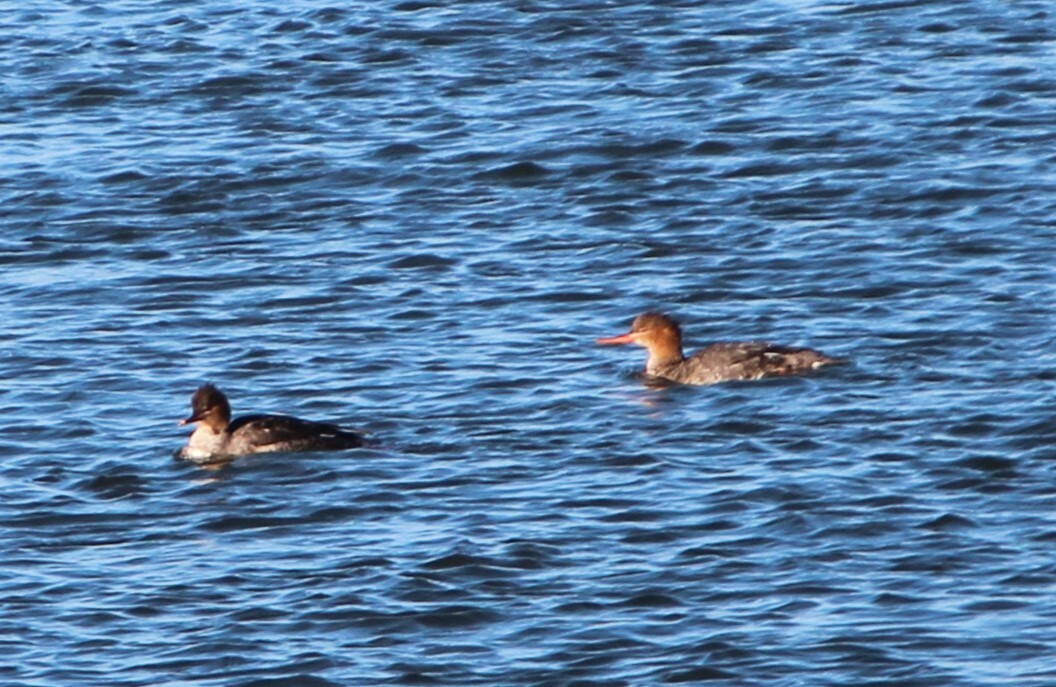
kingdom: Animalia
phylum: Chordata
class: Aves
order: Anseriformes
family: Anatidae
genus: Mergus
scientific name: Mergus serrator
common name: Red-breasted merganser
